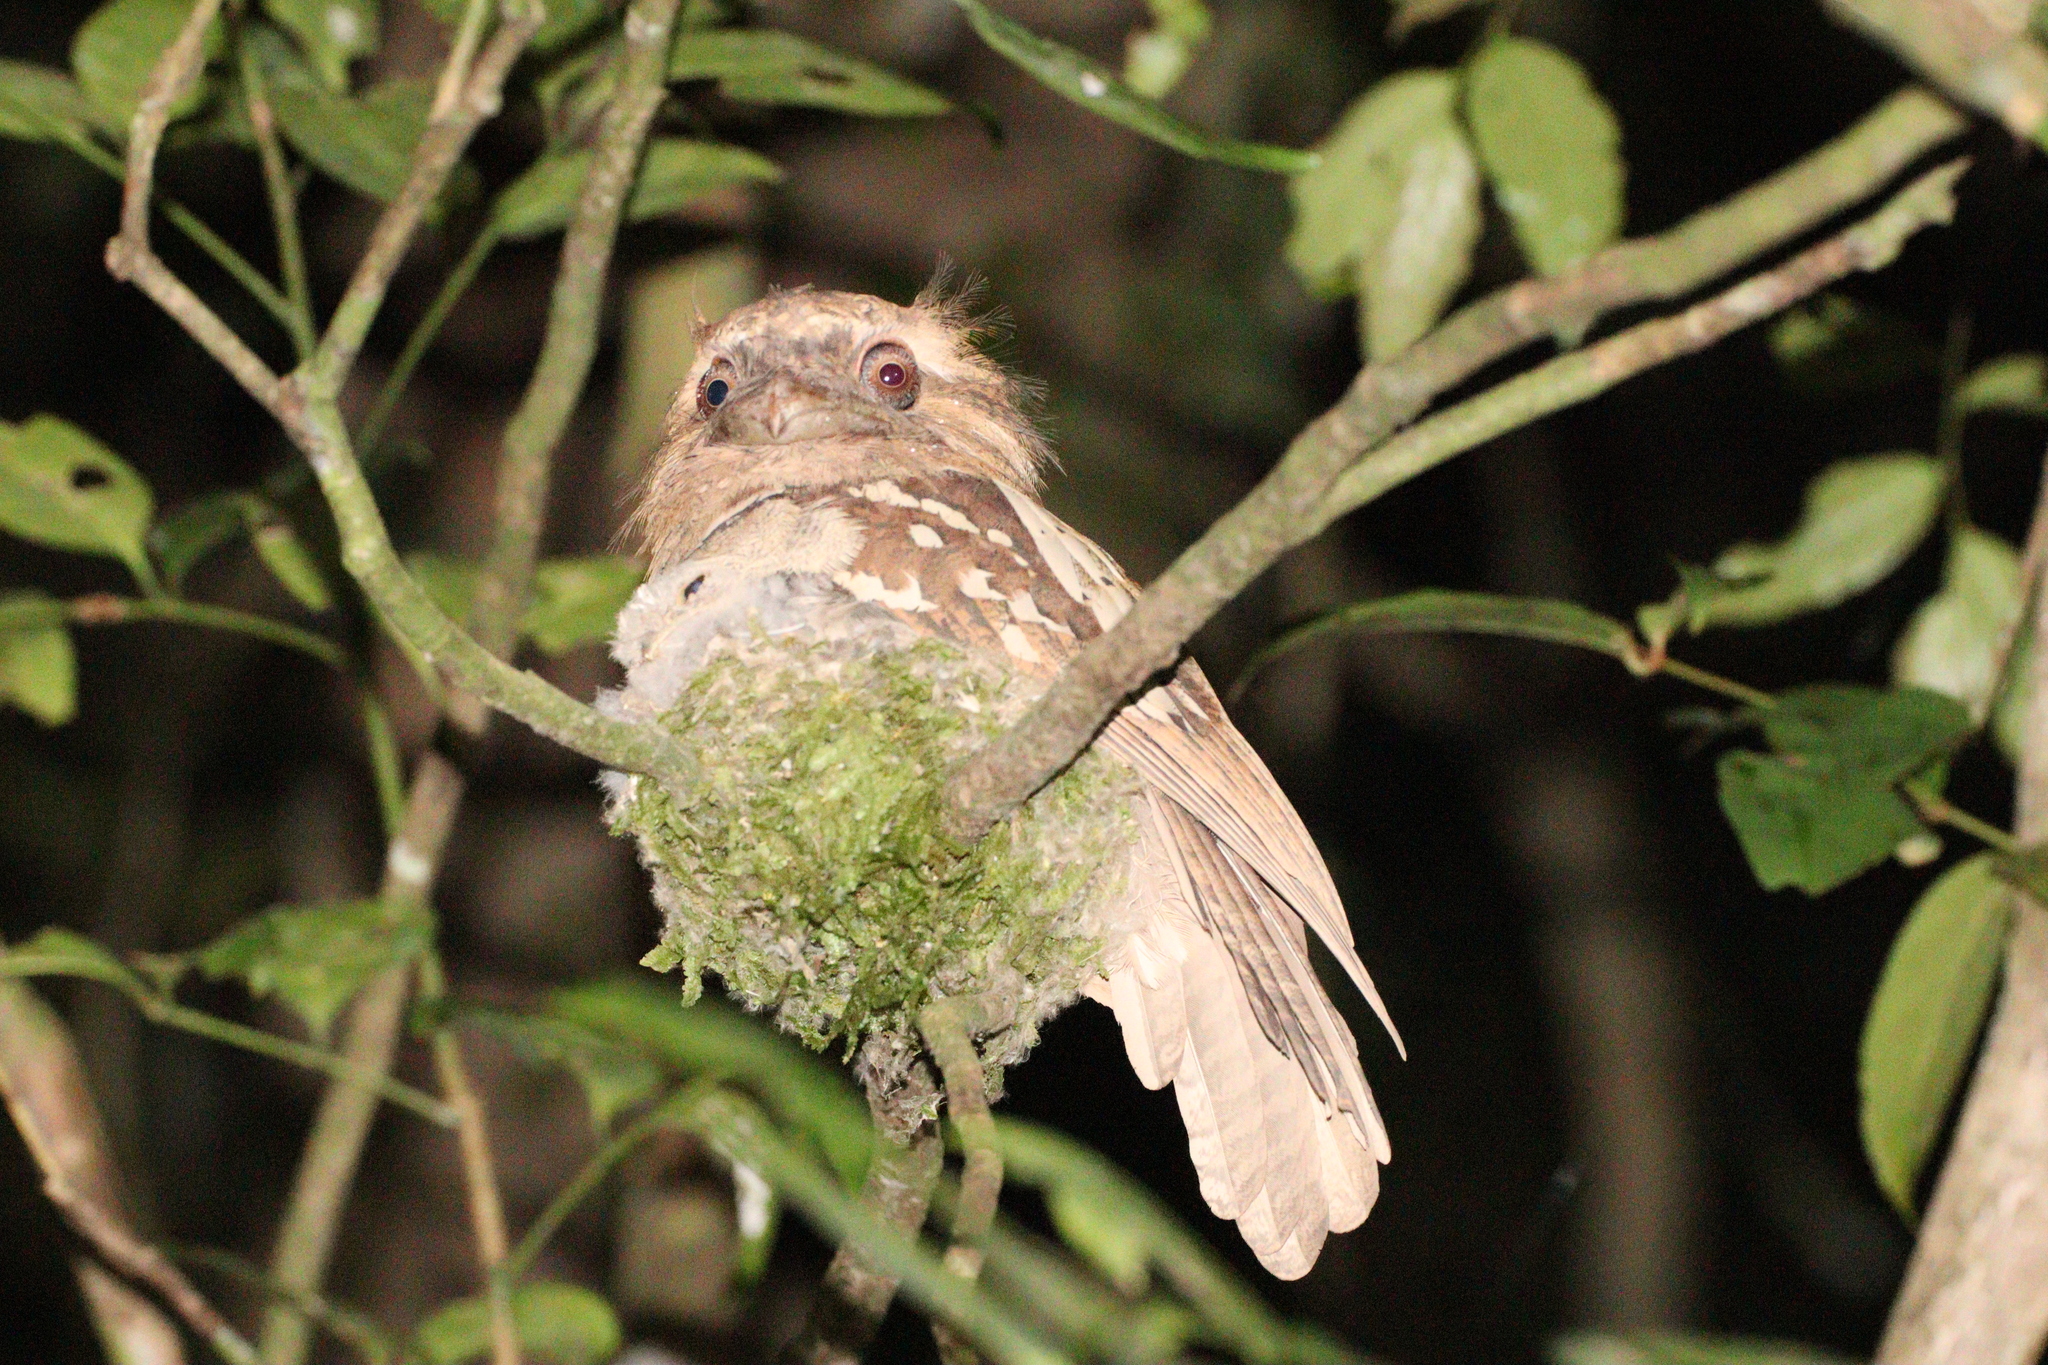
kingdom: Animalia
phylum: Chordata
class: Aves
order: Caprimulgiformes
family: Podargidae
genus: Batrachostomus
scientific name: Batrachostomus septimus
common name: Philippine frogmouth
